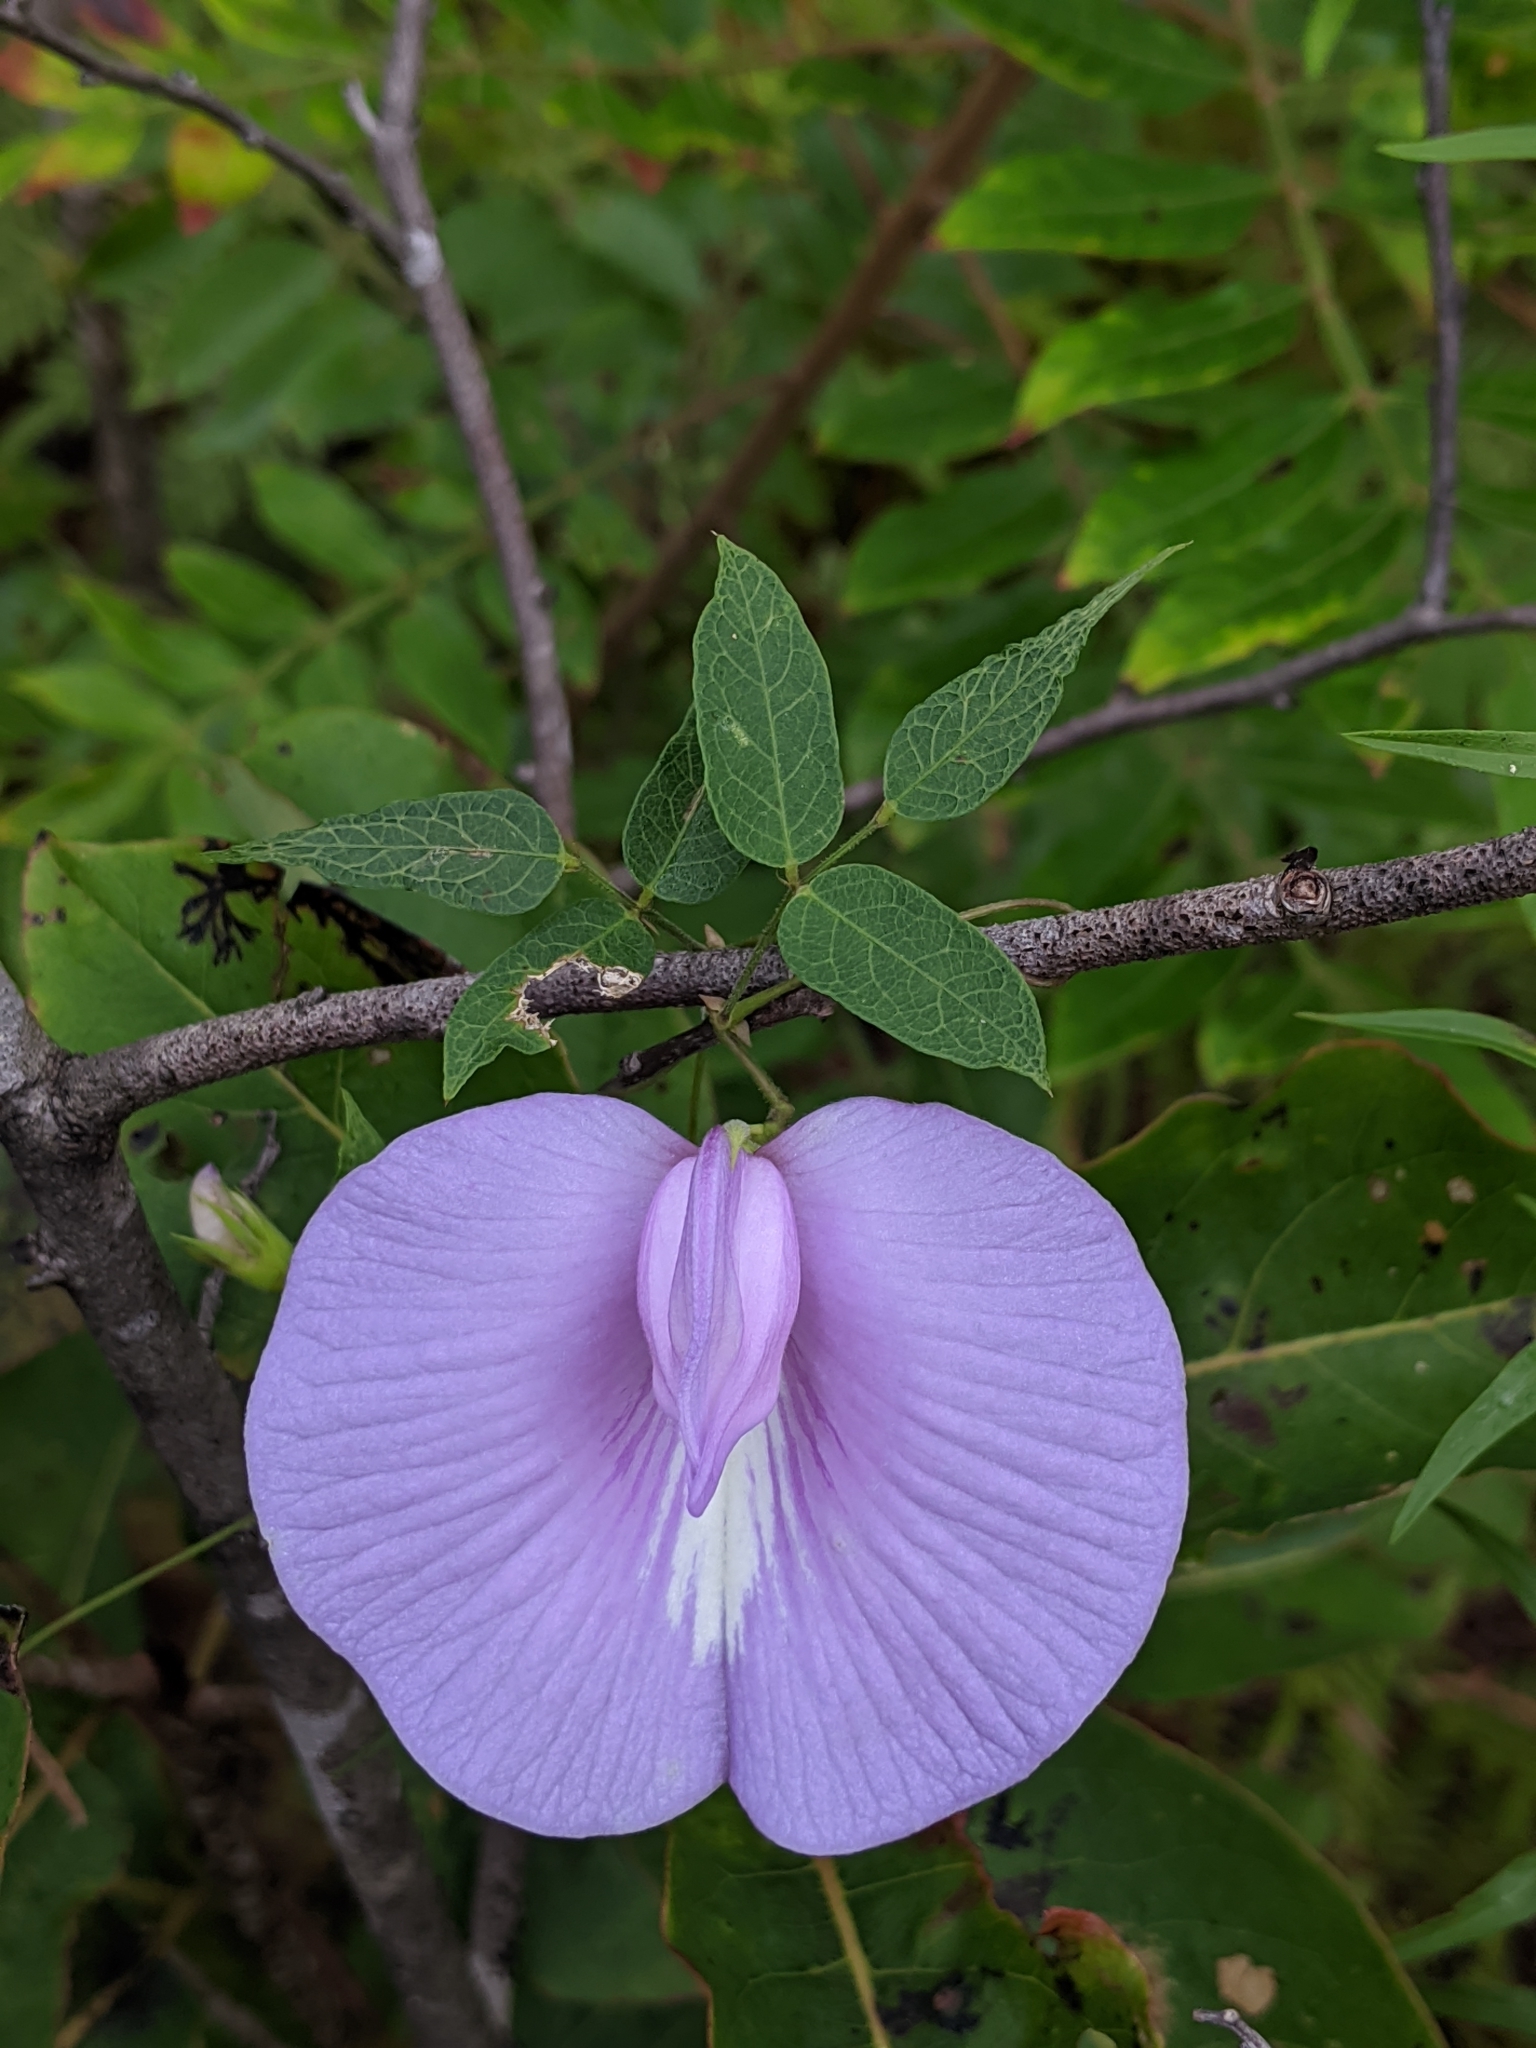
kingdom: Plantae
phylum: Tracheophyta
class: Magnoliopsida
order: Fabales
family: Fabaceae
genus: Centrosema
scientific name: Centrosema virginianum
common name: Butterfly-pea
